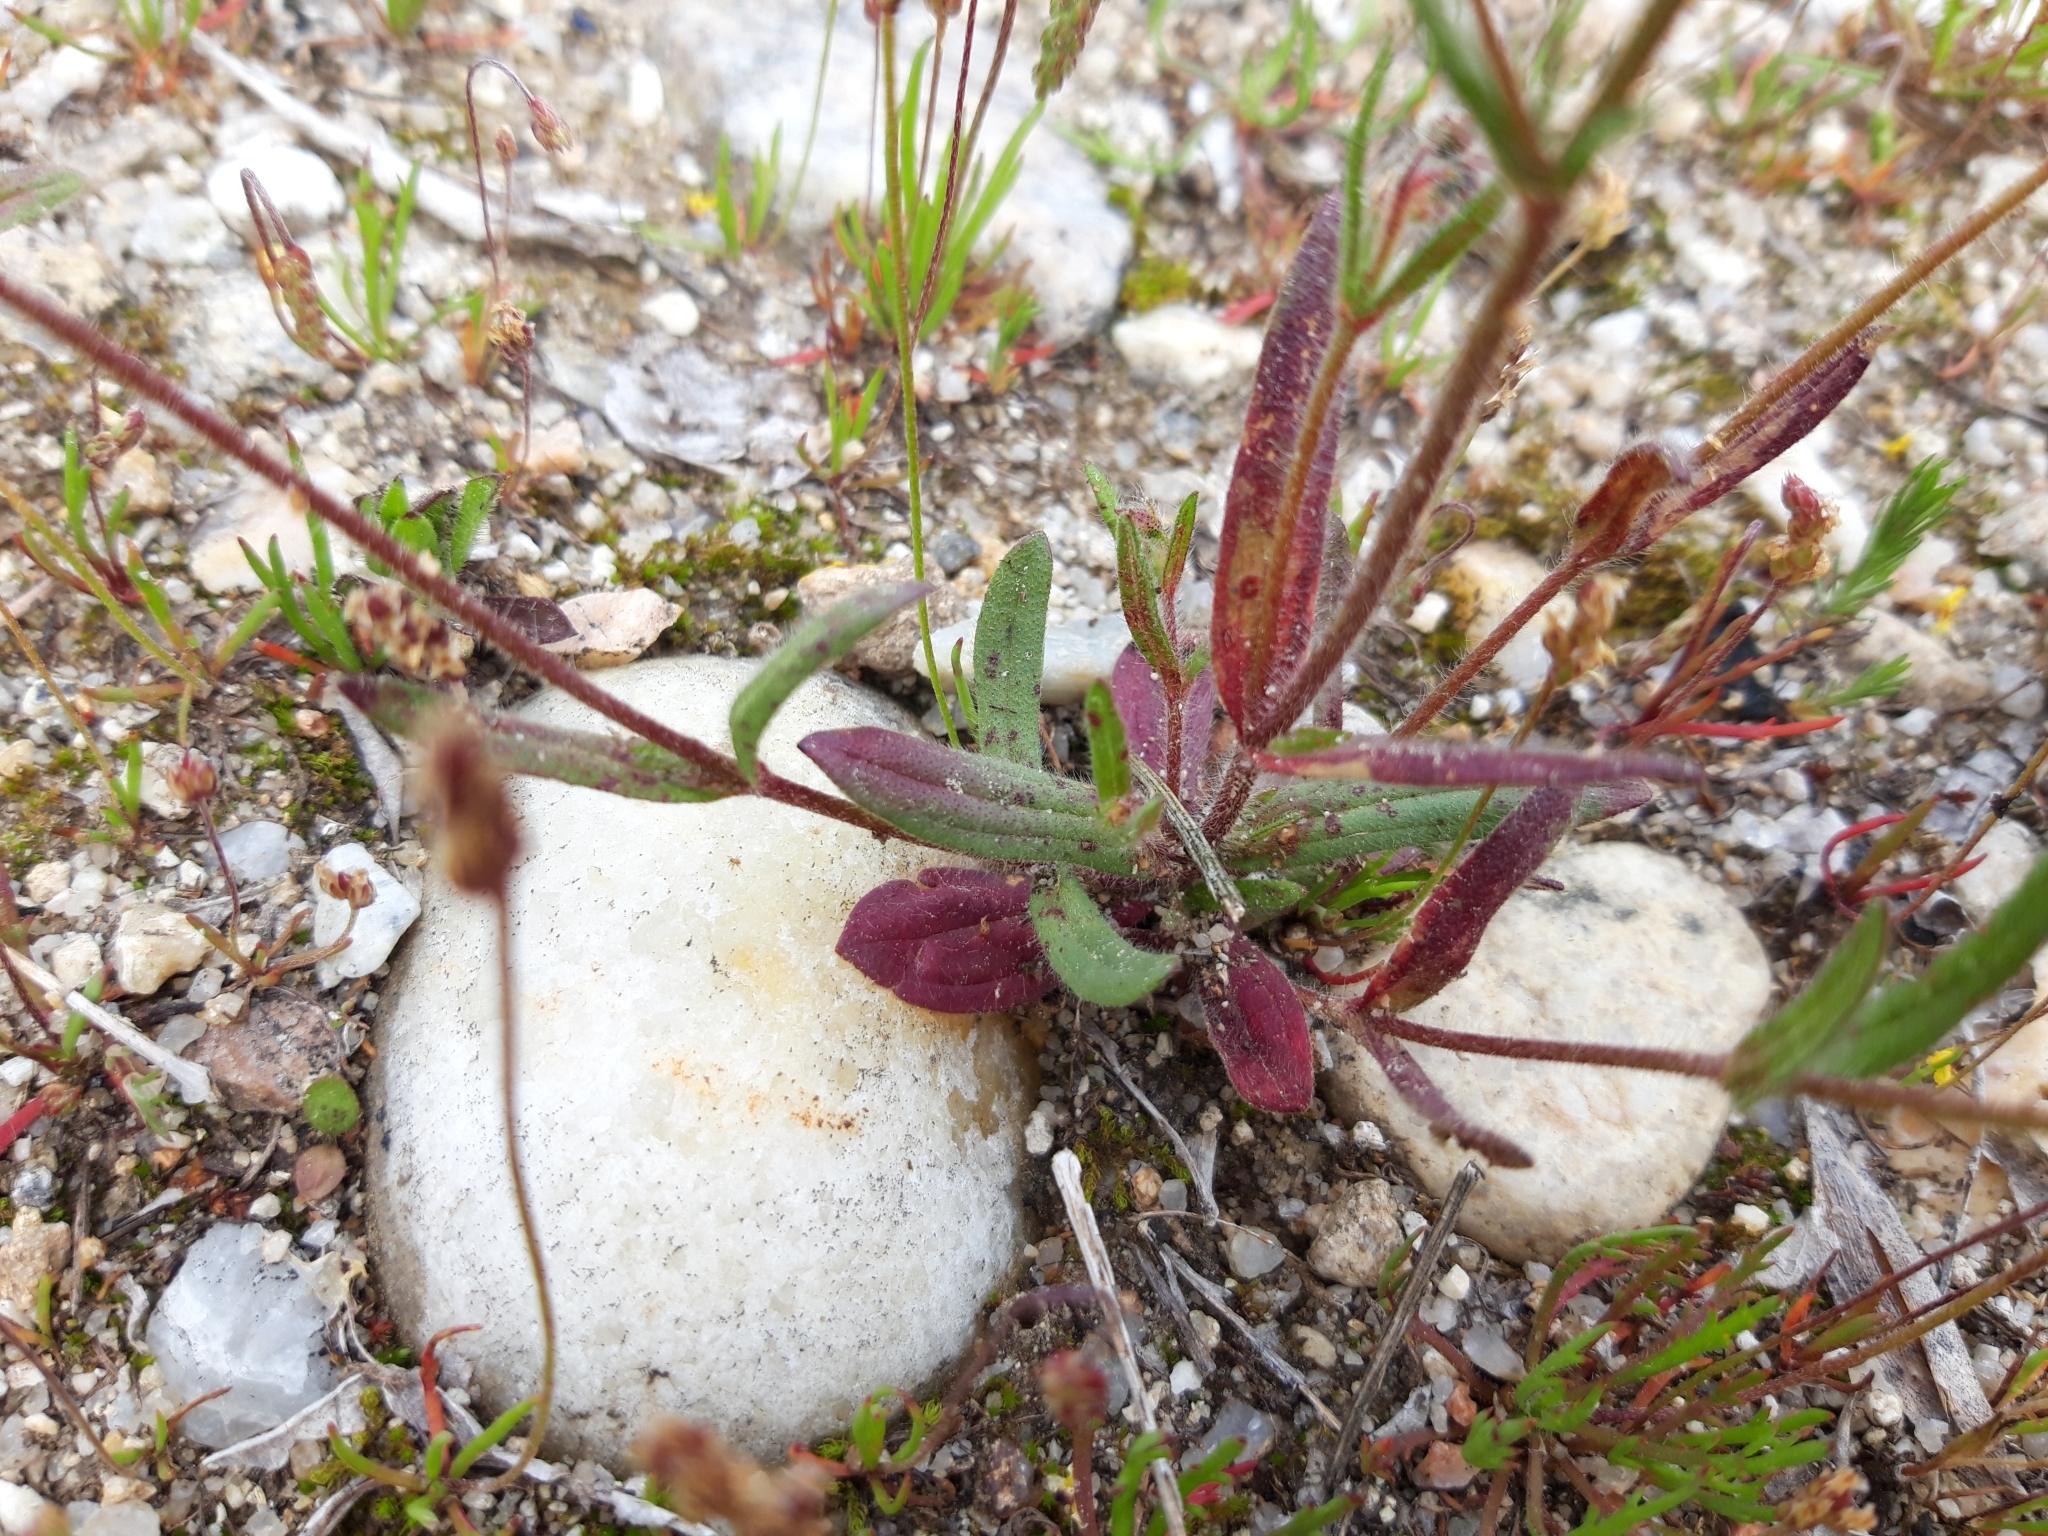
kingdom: Plantae
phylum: Tracheophyta
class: Magnoliopsida
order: Malvales
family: Cistaceae
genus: Tuberaria
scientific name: Tuberaria guttata
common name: Spotted rock-rose
